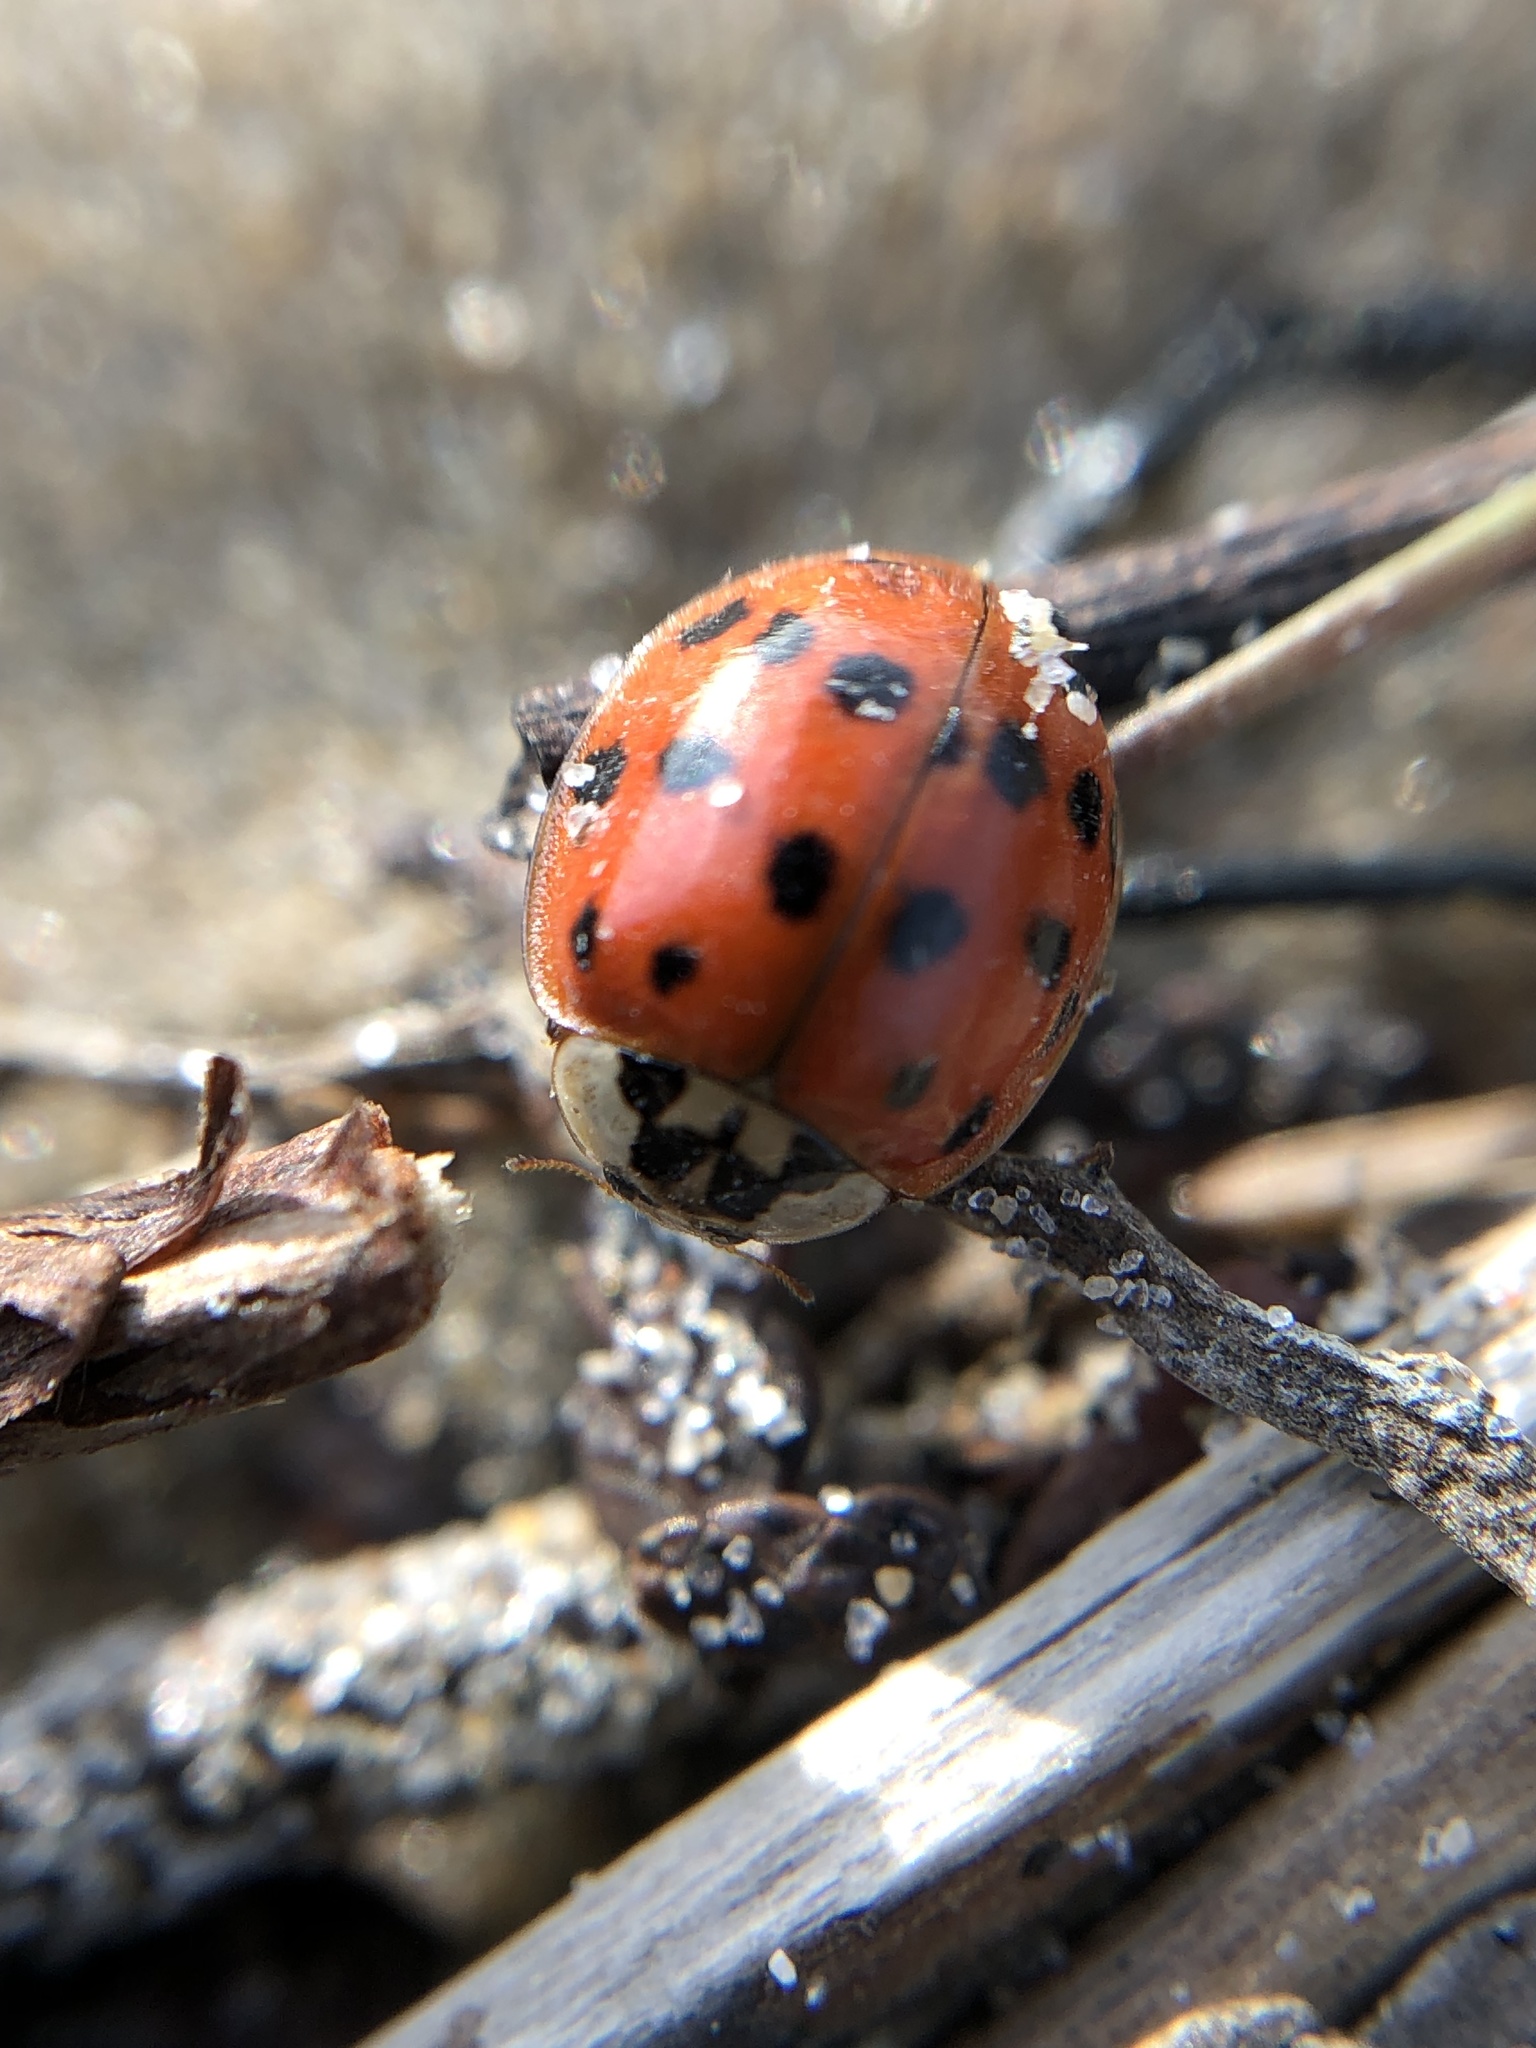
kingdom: Animalia
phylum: Arthropoda
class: Insecta
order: Coleoptera
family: Coccinellidae
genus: Harmonia
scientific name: Harmonia axyridis
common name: Harlequin ladybird
